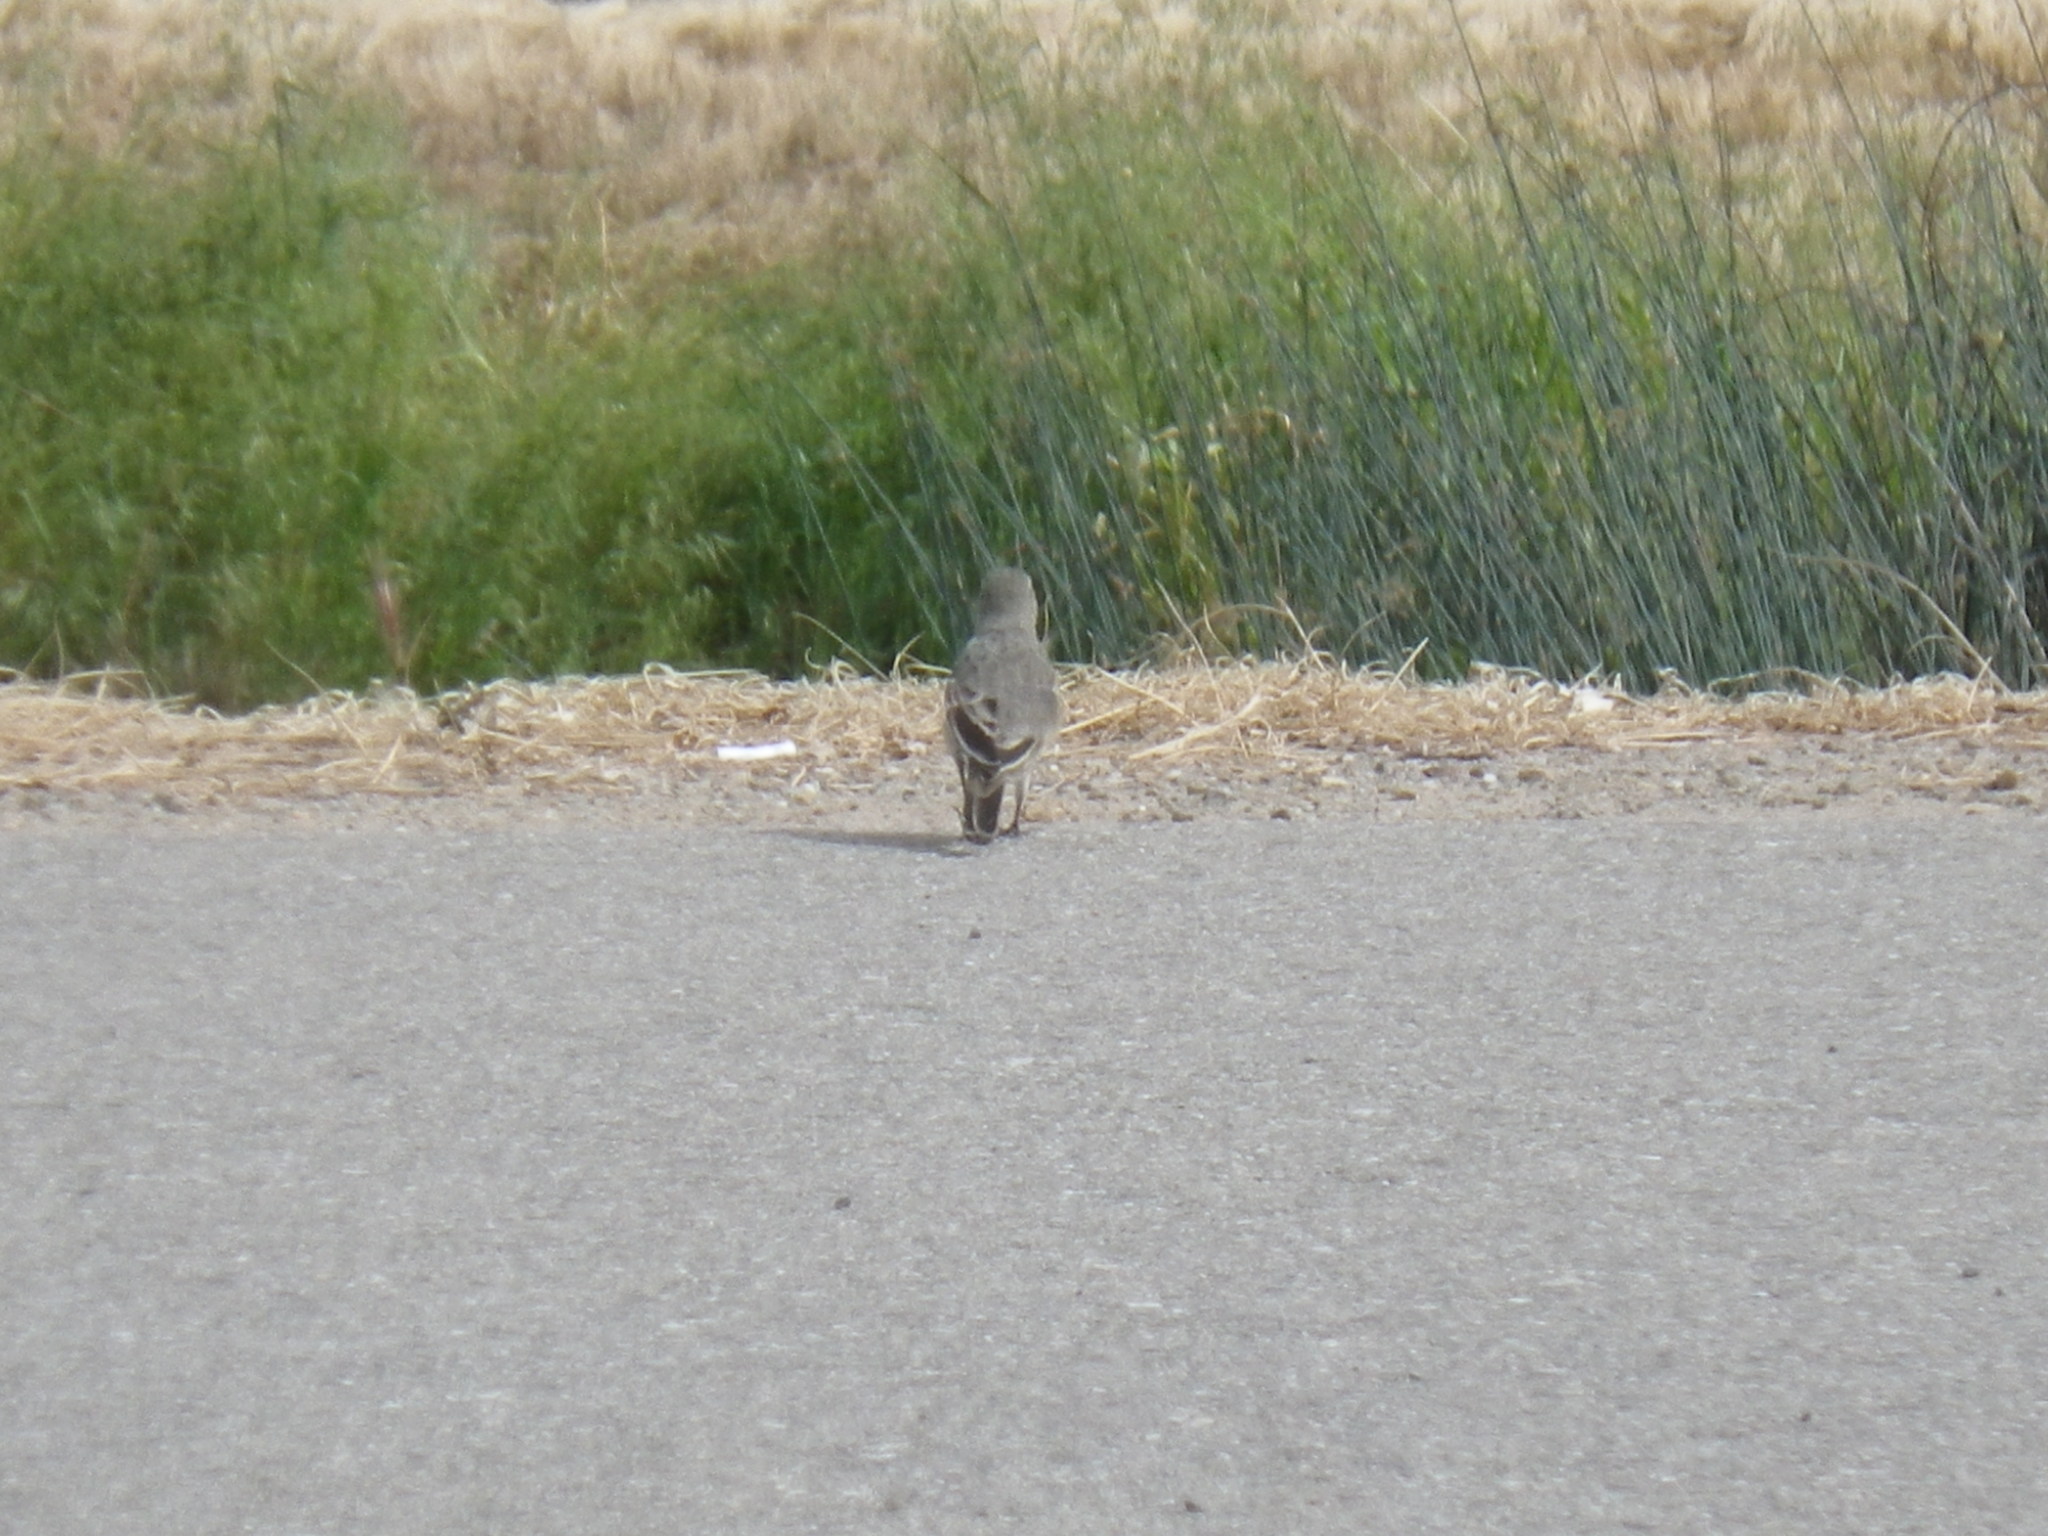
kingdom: Animalia
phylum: Chordata
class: Aves
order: Passeriformes
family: Motacillidae
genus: Anthus
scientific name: Anthus rubescens
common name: Buff-bellied pipit
